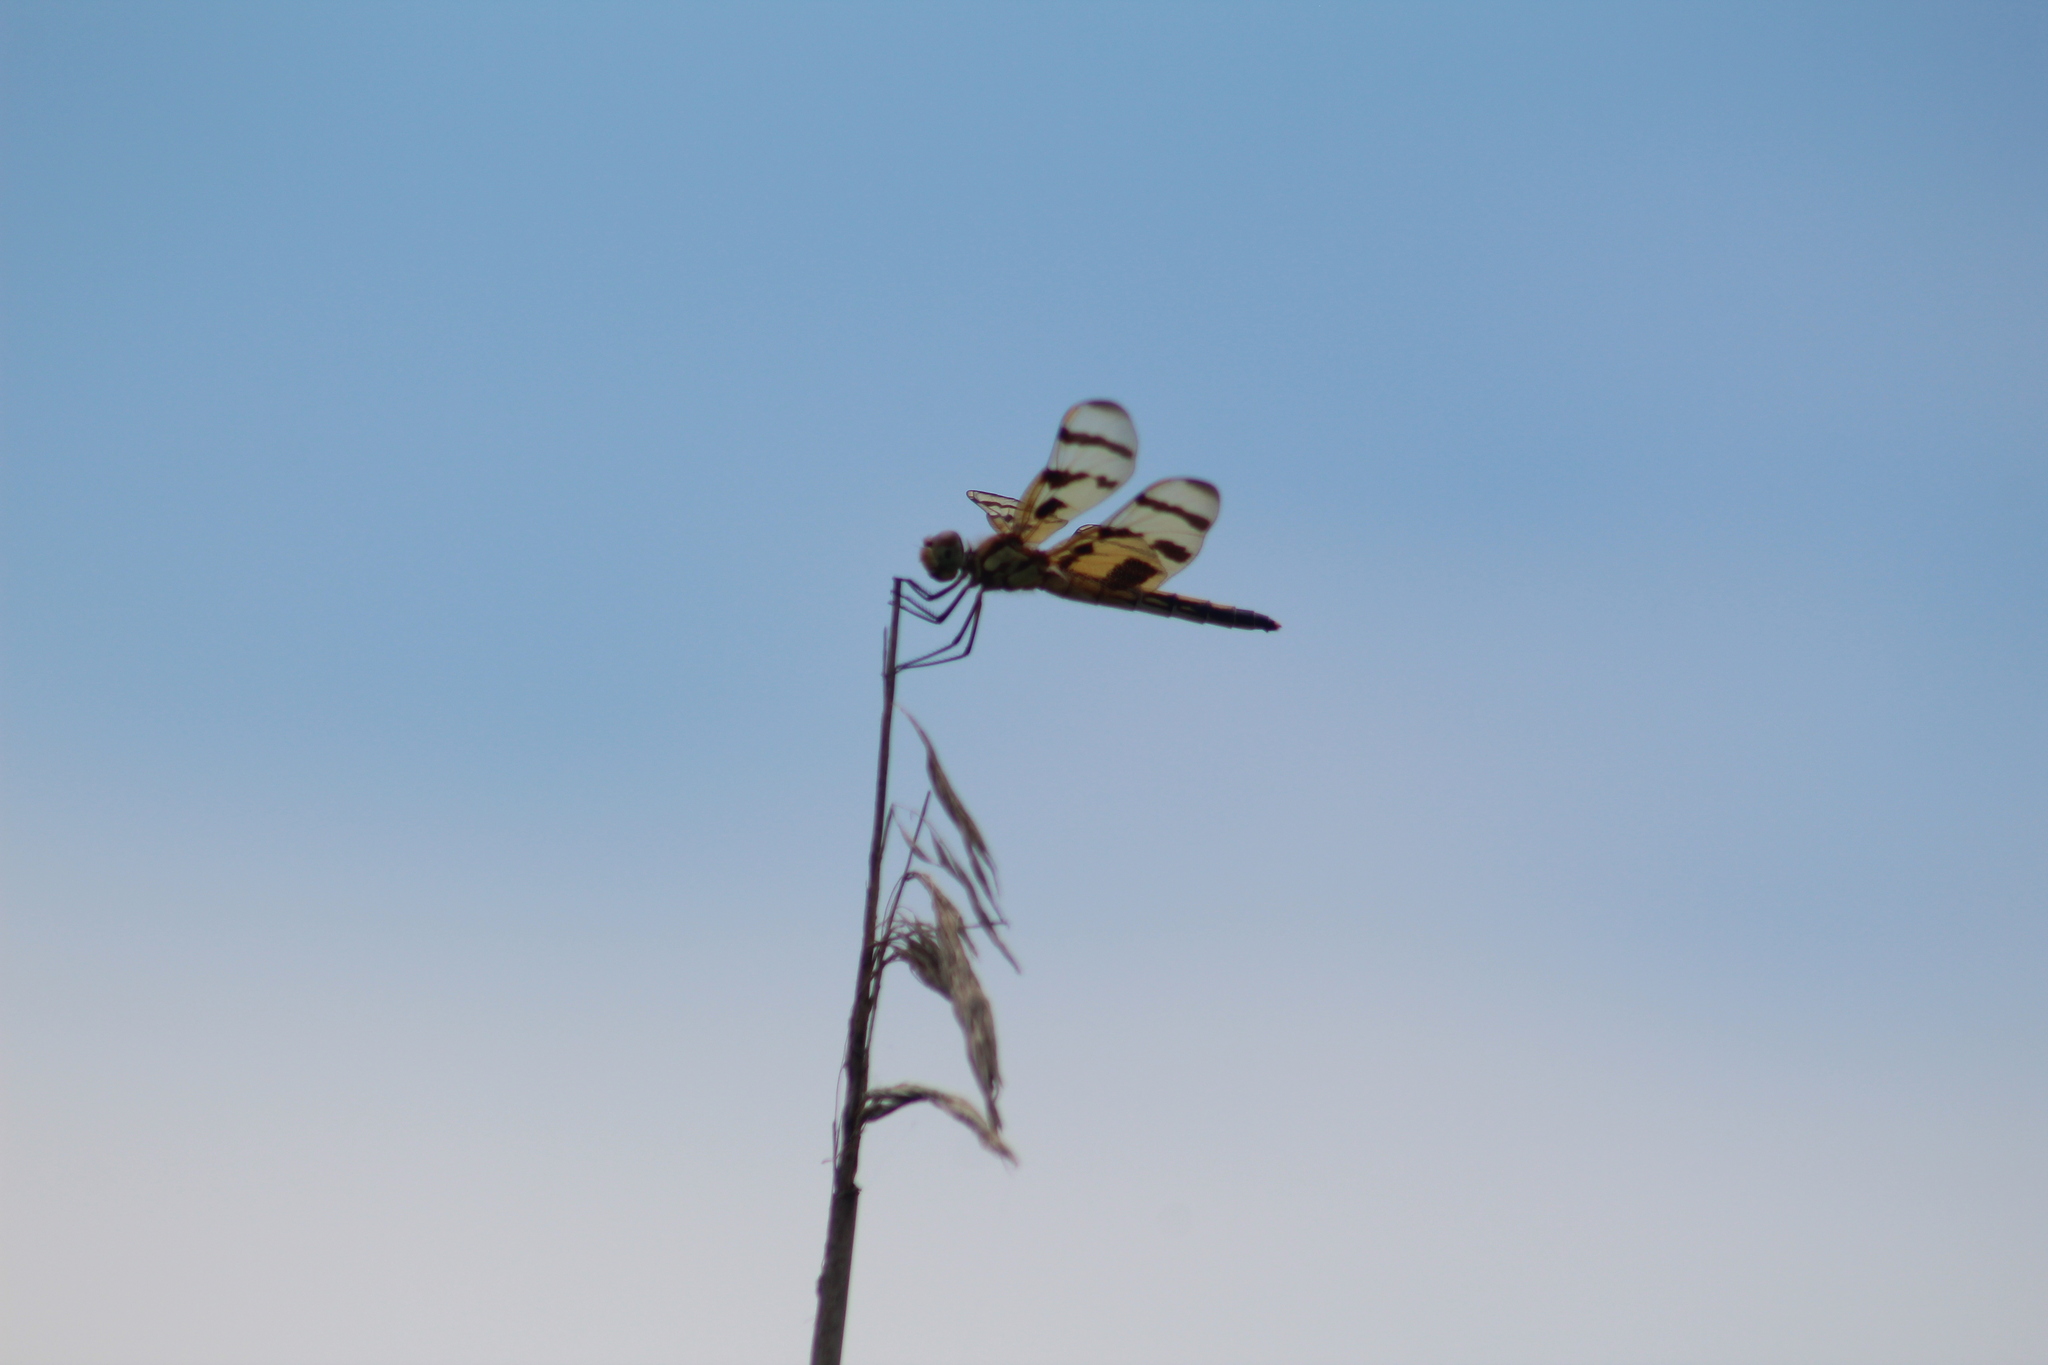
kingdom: Animalia
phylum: Arthropoda
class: Insecta
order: Odonata
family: Libellulidae
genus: Celithemis
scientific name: Celithemis eponina
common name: Halloween pennant
